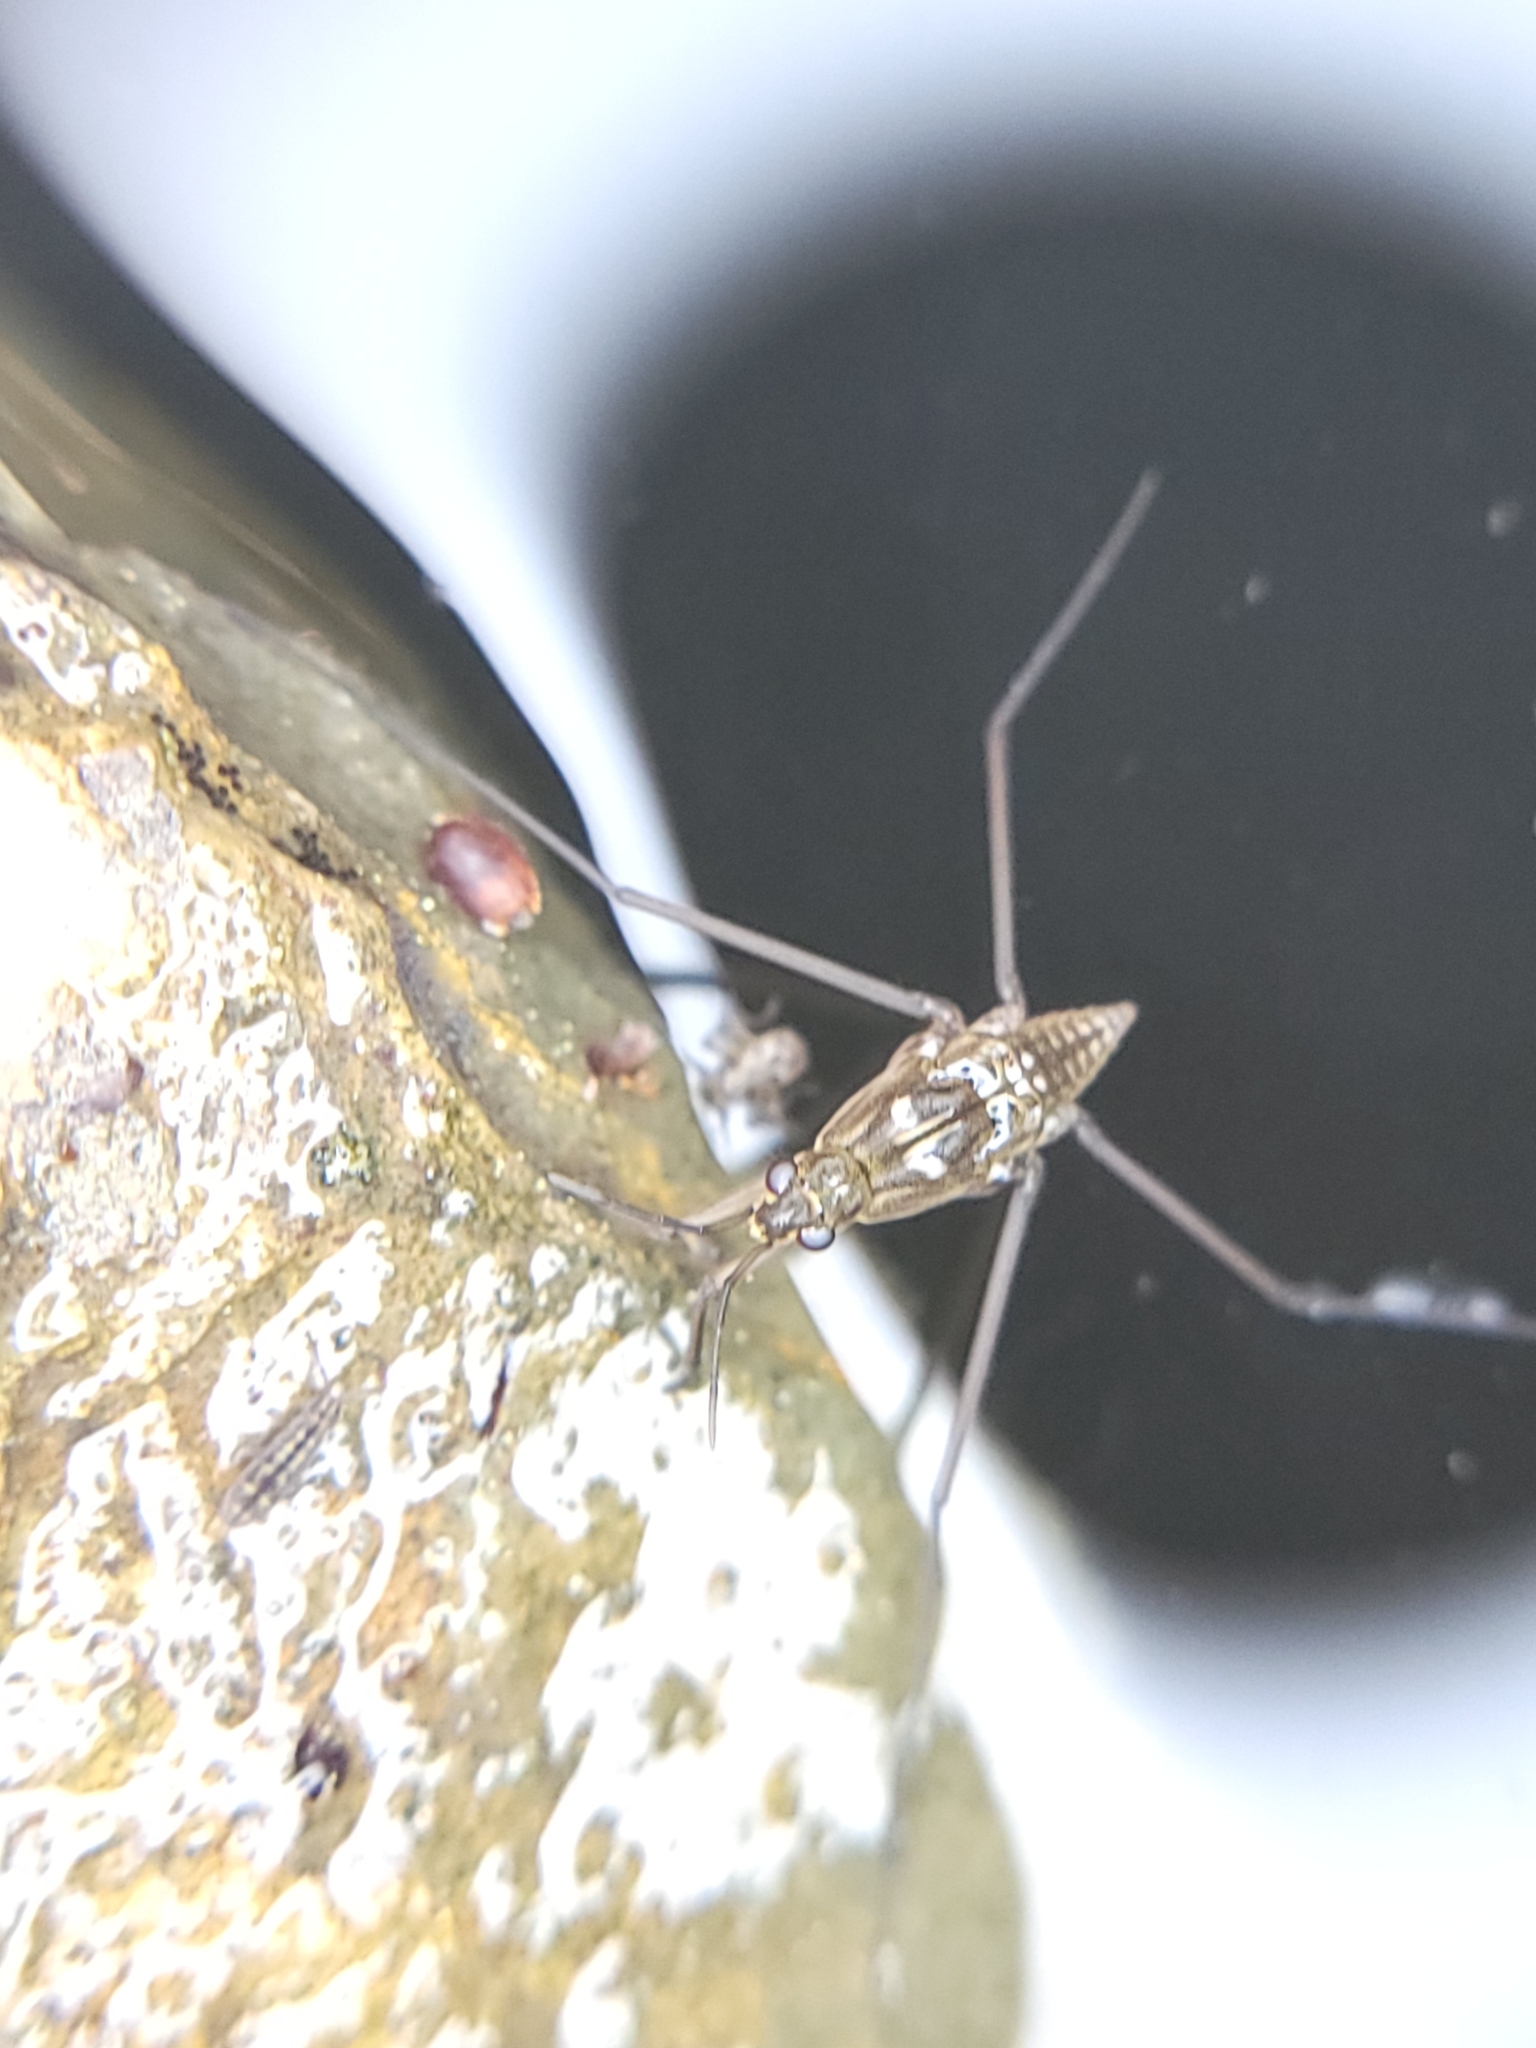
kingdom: Animalia
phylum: Arthropoda
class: Insecta
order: Hemiptera
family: Gerridae
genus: Aquarius
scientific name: Aquarius remigis
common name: Common water strider
